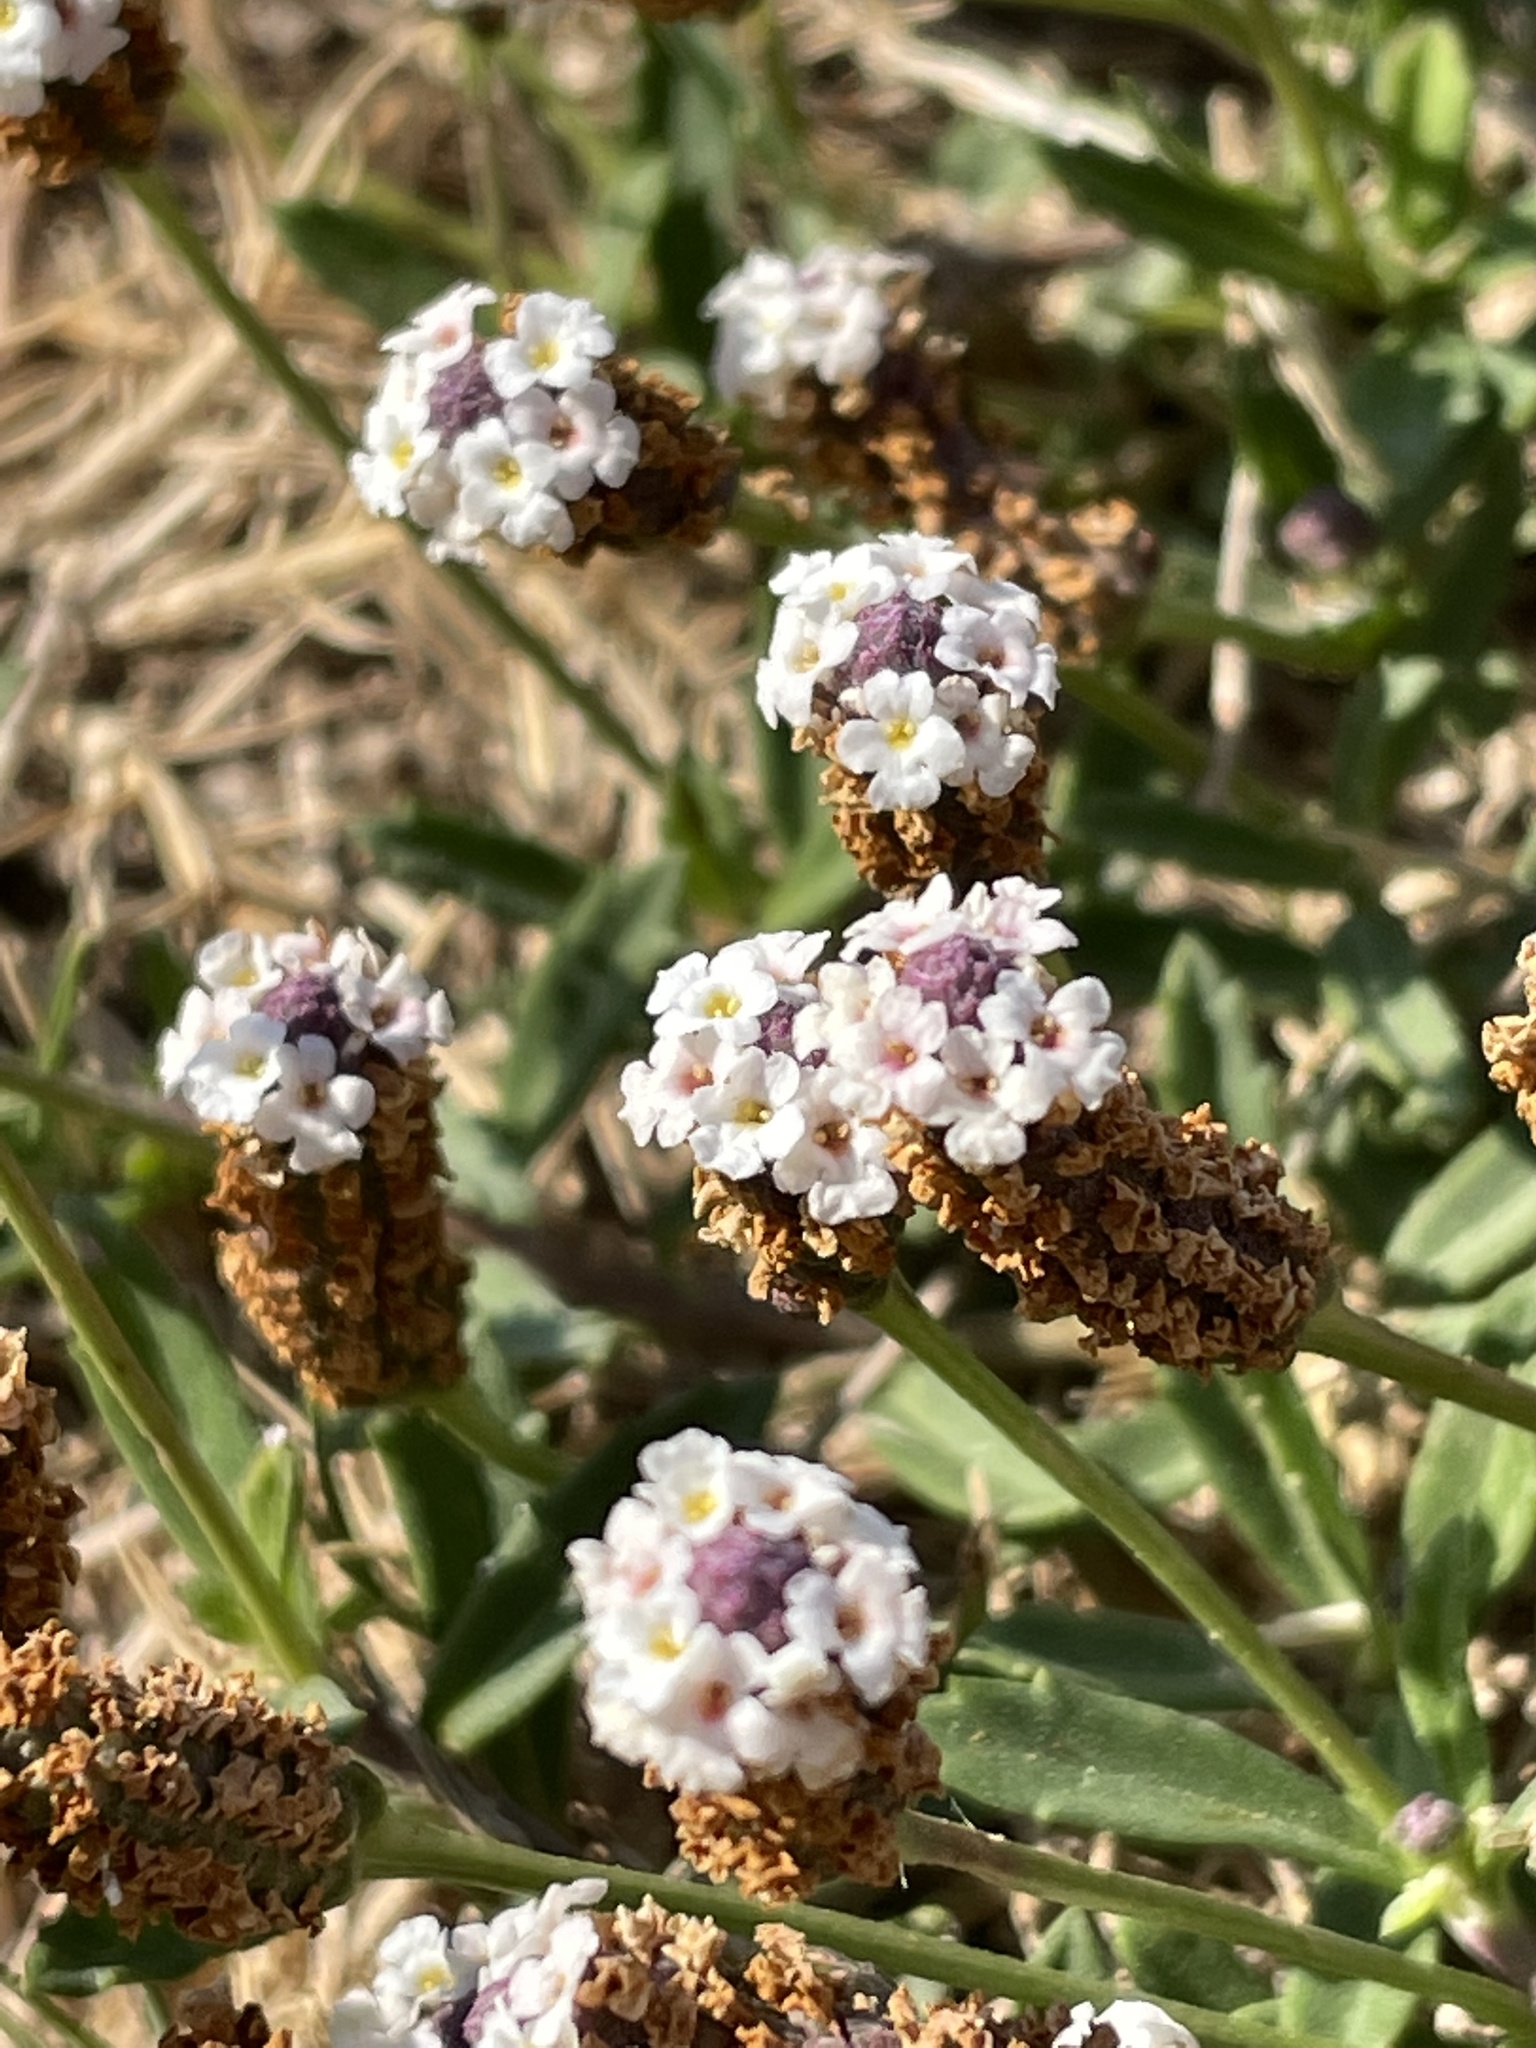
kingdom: Plantae
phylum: Tracheophyta
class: Magnoliopsida
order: Lamiales
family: Verbenaceae
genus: Phyla
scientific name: Phyla nodiflora
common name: Frogfruit
